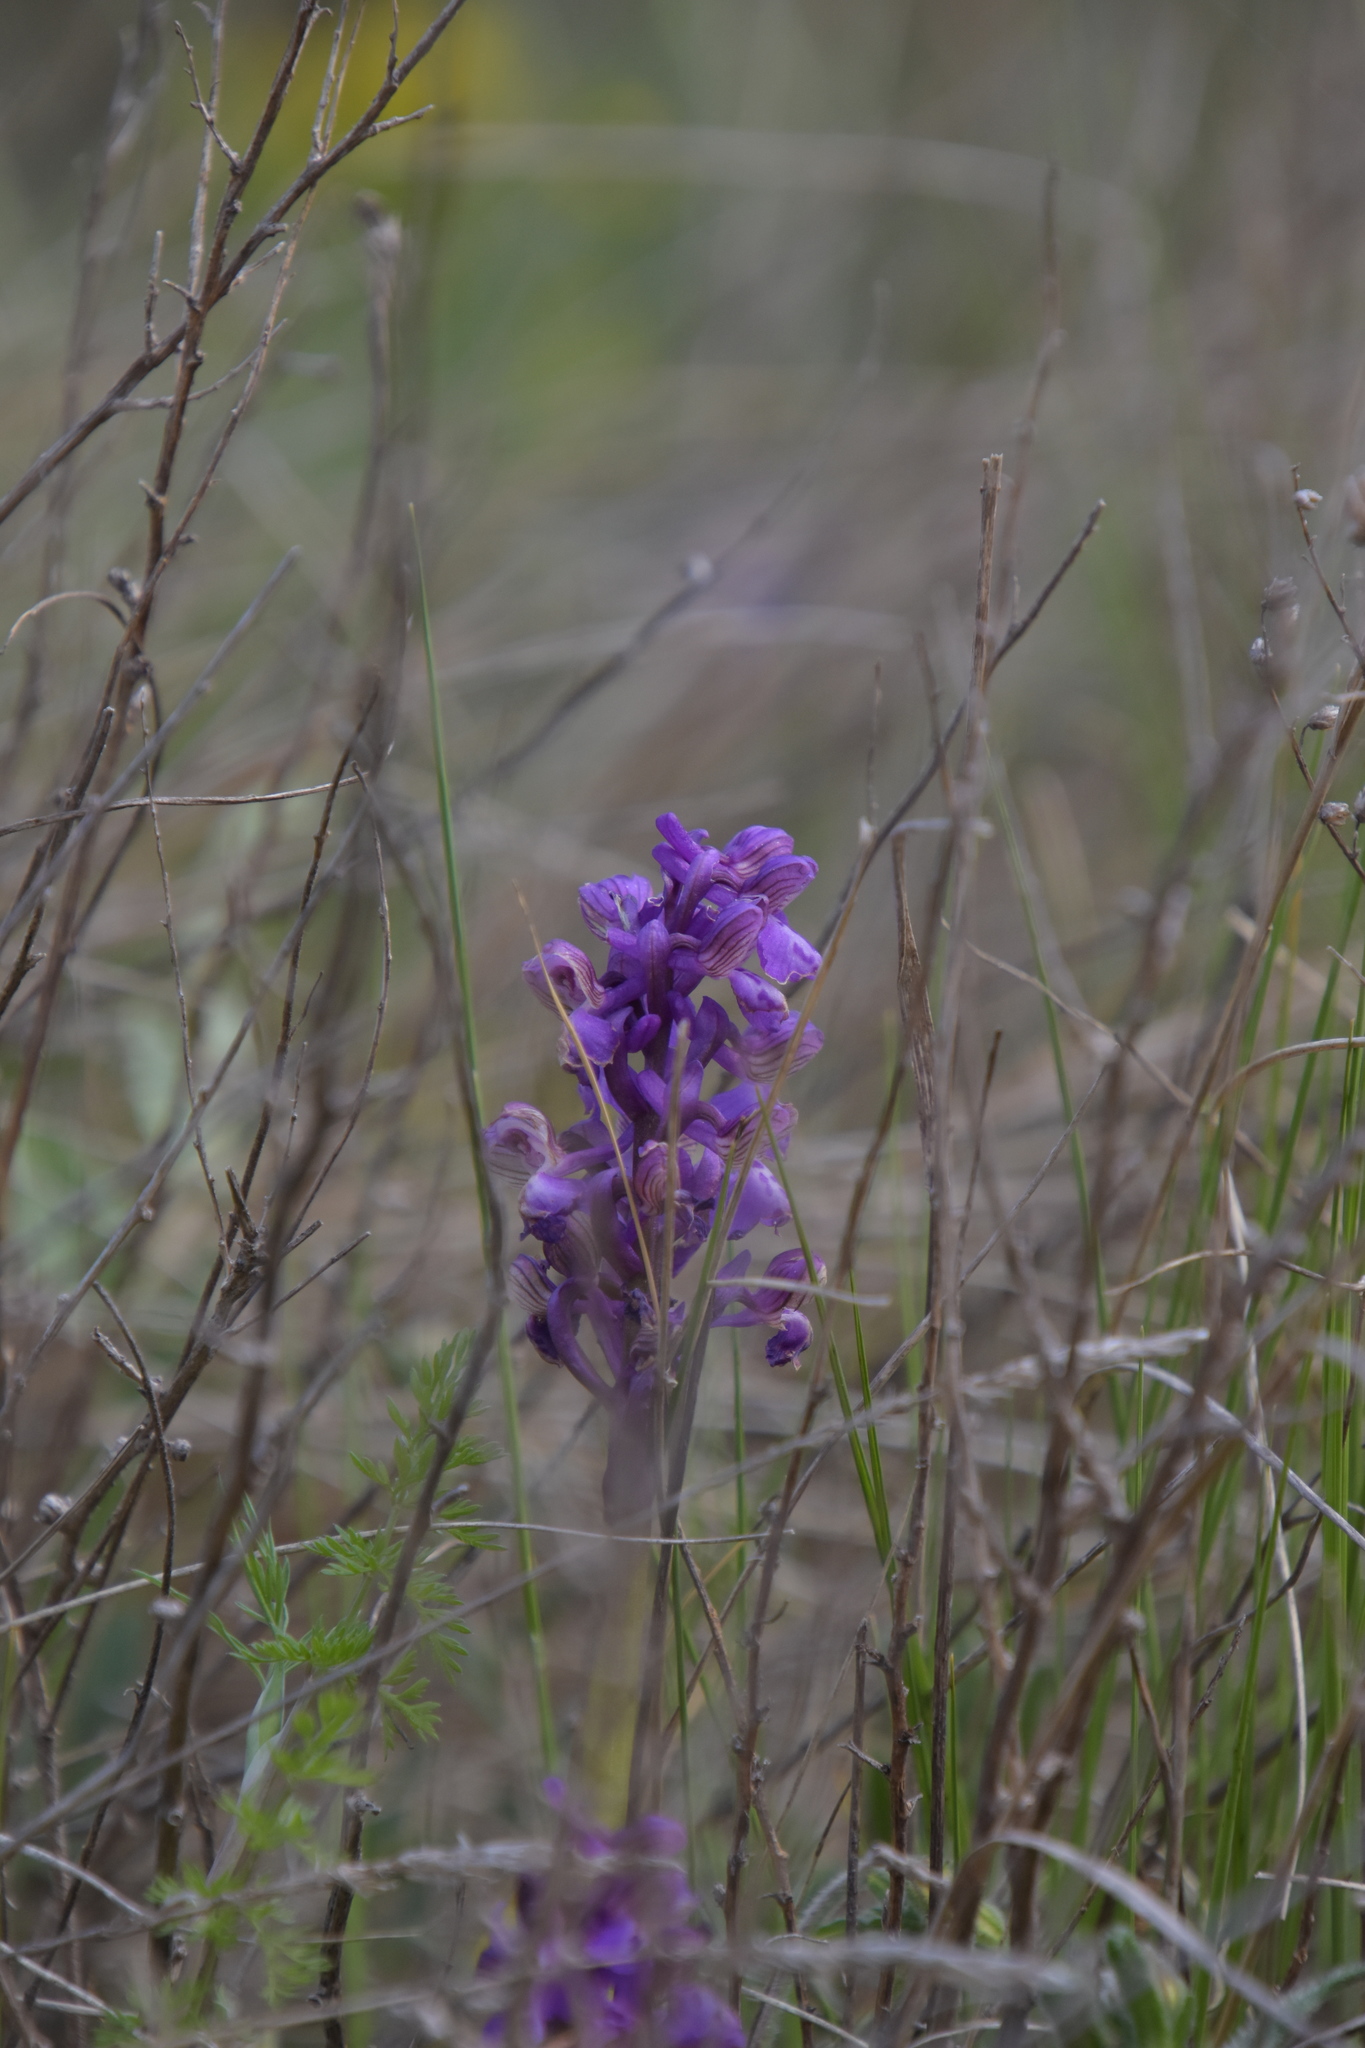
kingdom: Plantae
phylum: Tracheophyta
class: Liliopsida
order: Asparagales
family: Orchidaceae
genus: Anacamptis
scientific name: Anacamptis morio
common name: Green-winged orchid
